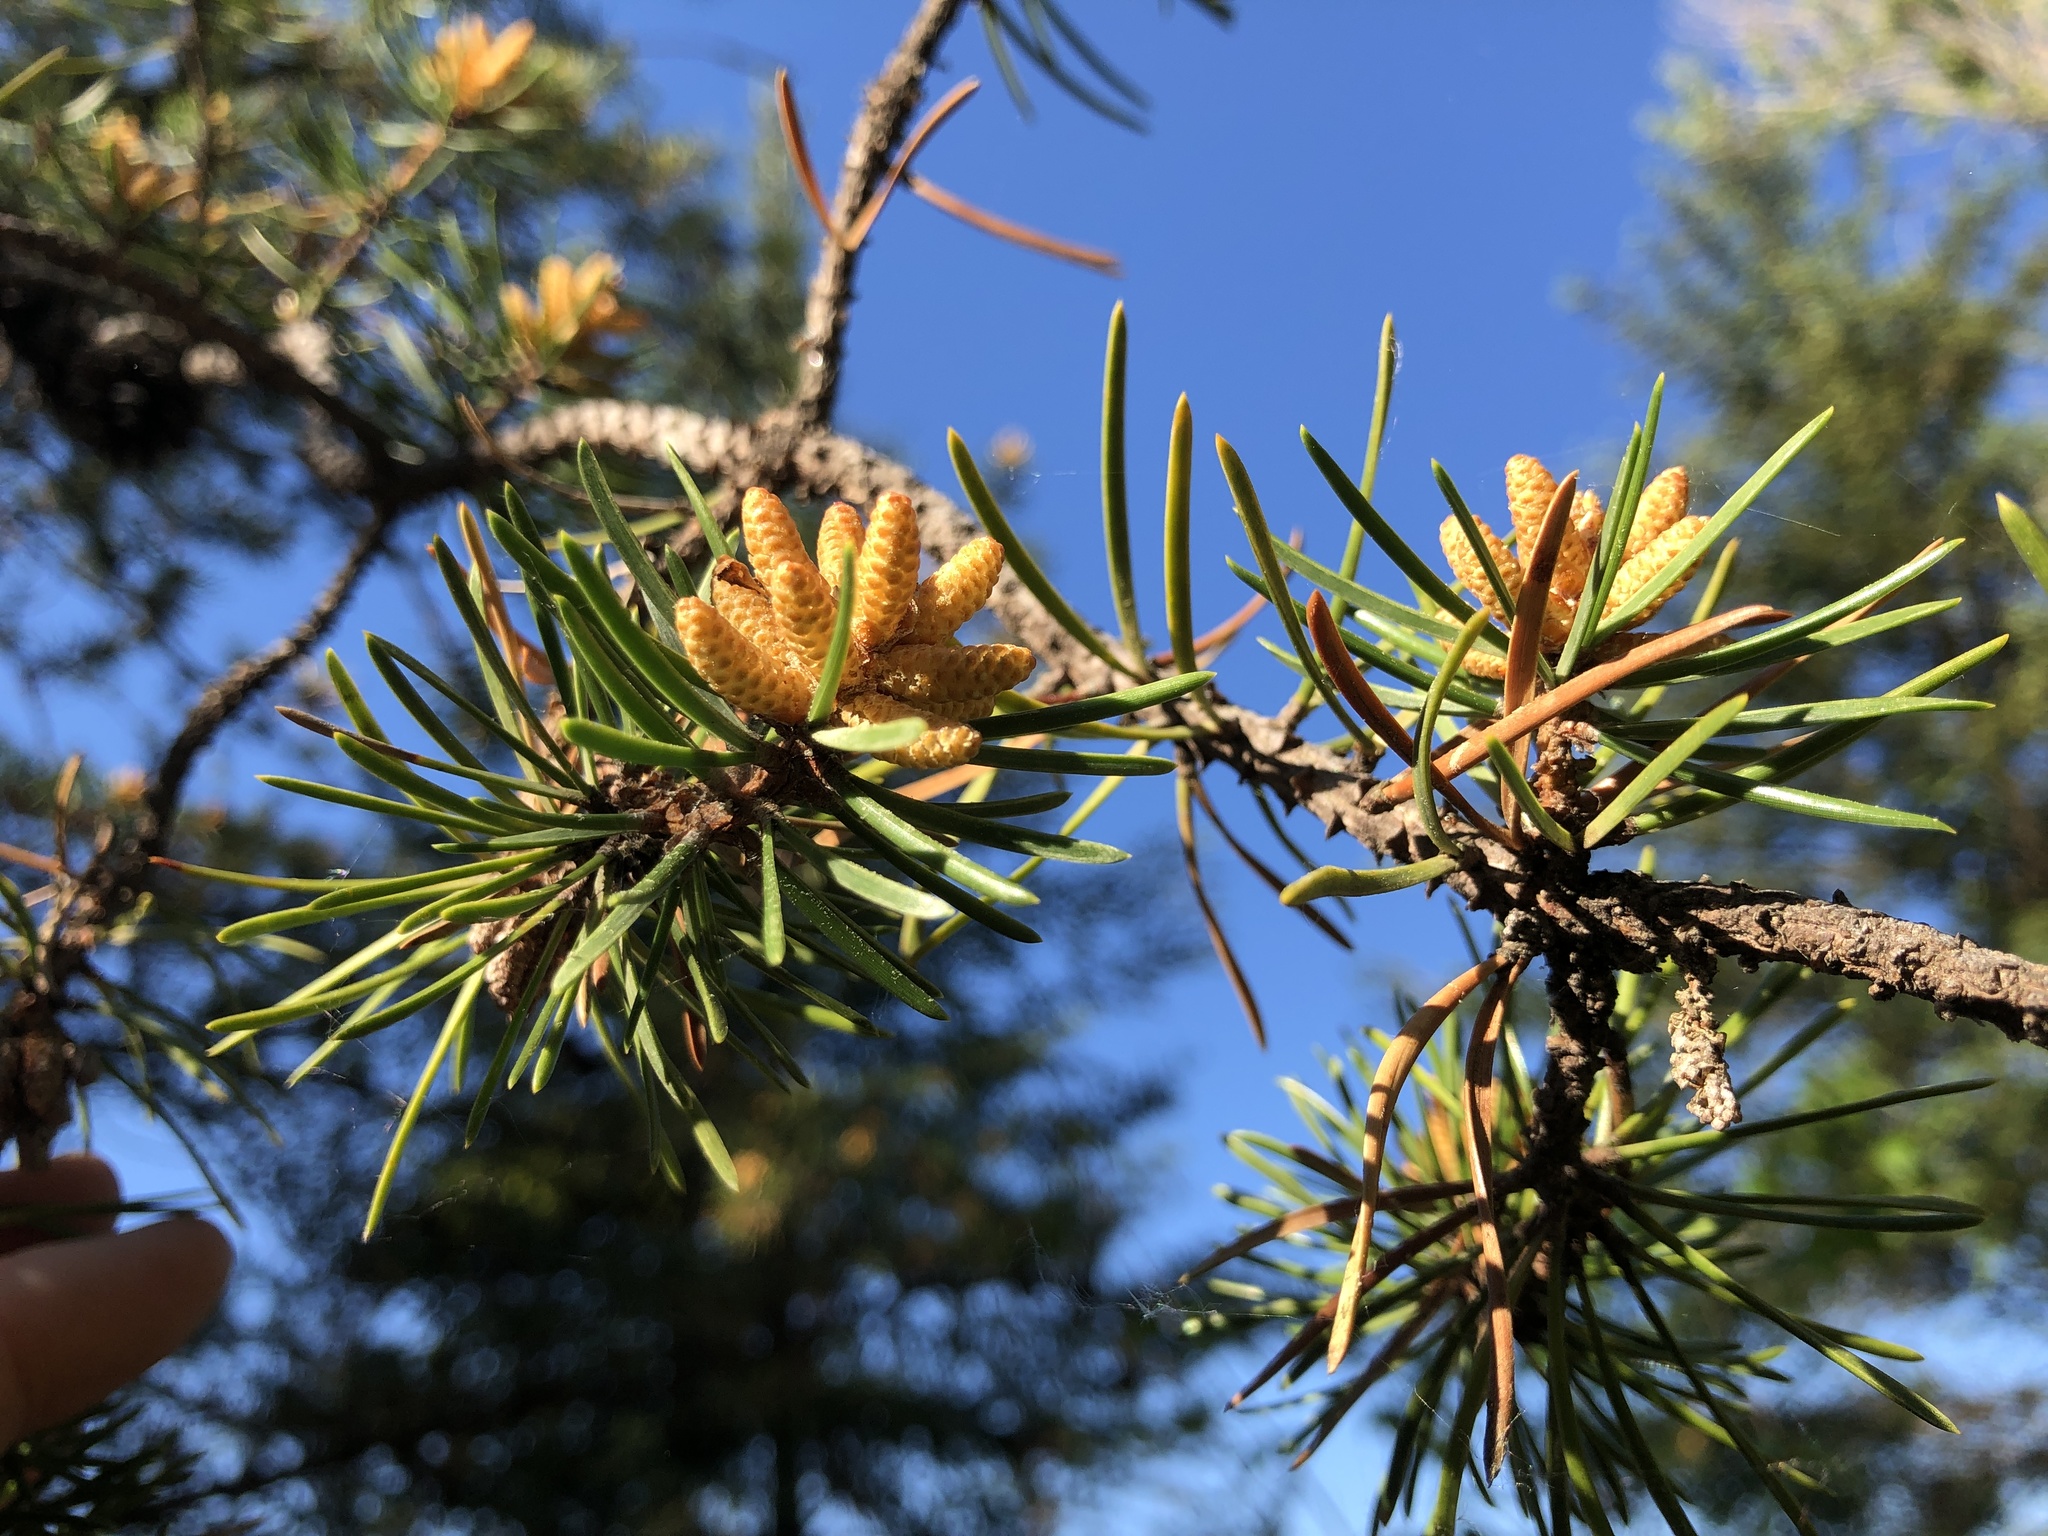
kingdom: Plantae
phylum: Tracheophyta
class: Pinopsida
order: Pinales
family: Pinaceae
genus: Pinus
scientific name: Pinus banksiana
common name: Jack pine
